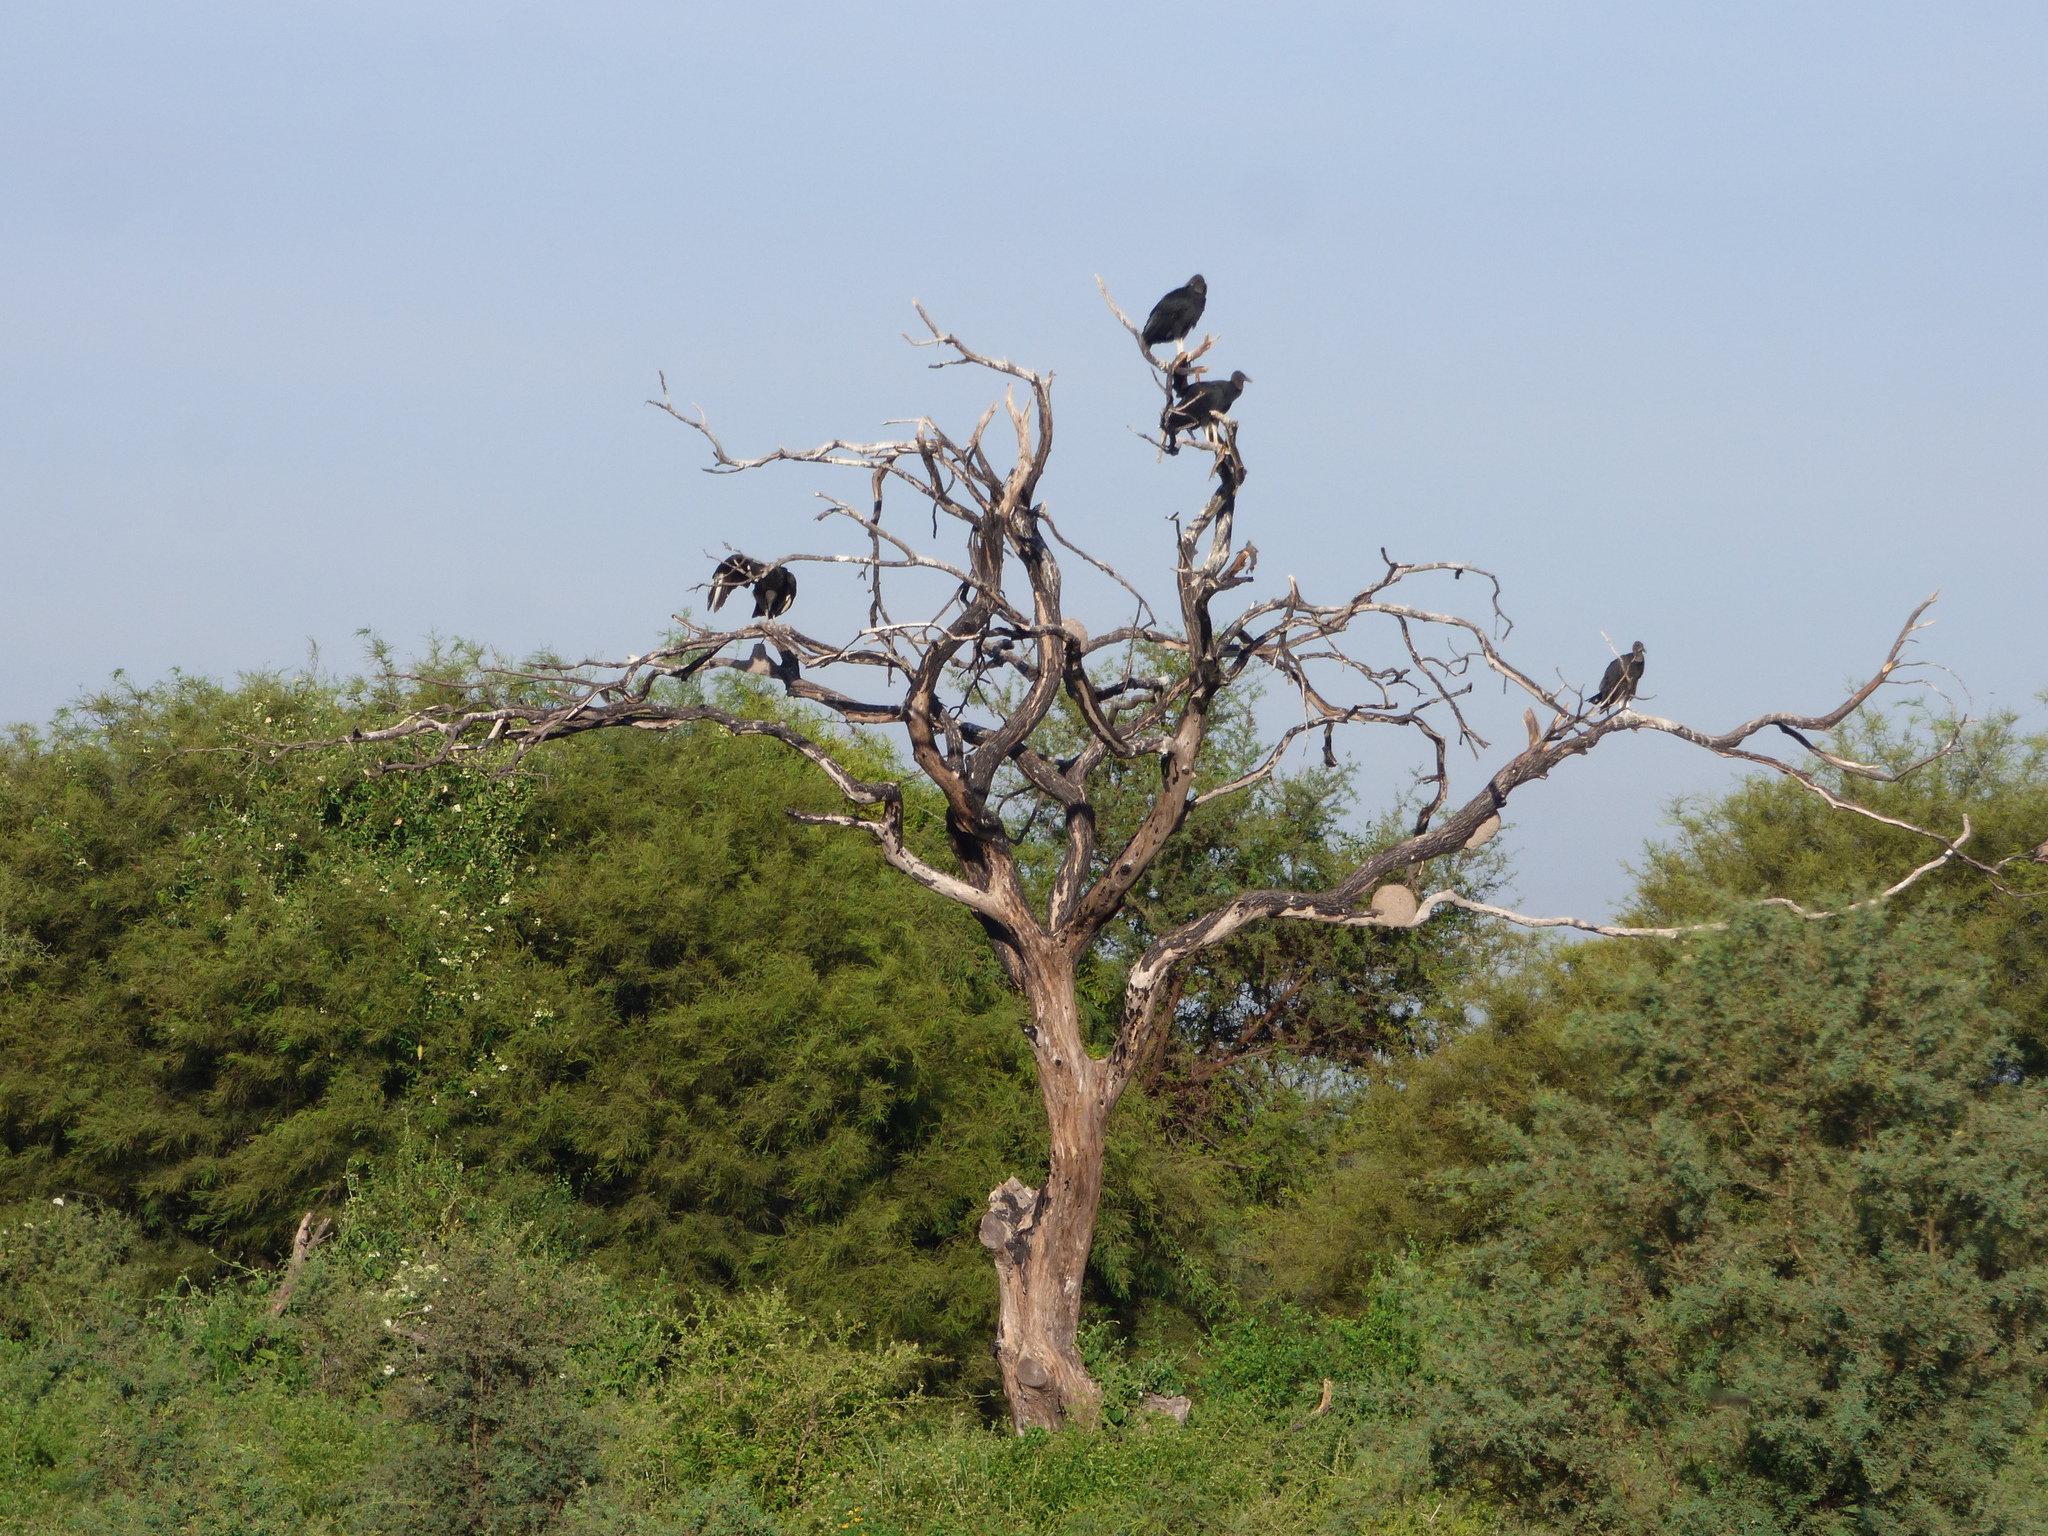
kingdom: Animalia
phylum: Chordata
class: Aves
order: Accipitriformes
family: Cathartidae
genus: Coragyps
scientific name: Coragyps atratus
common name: Black vulture
